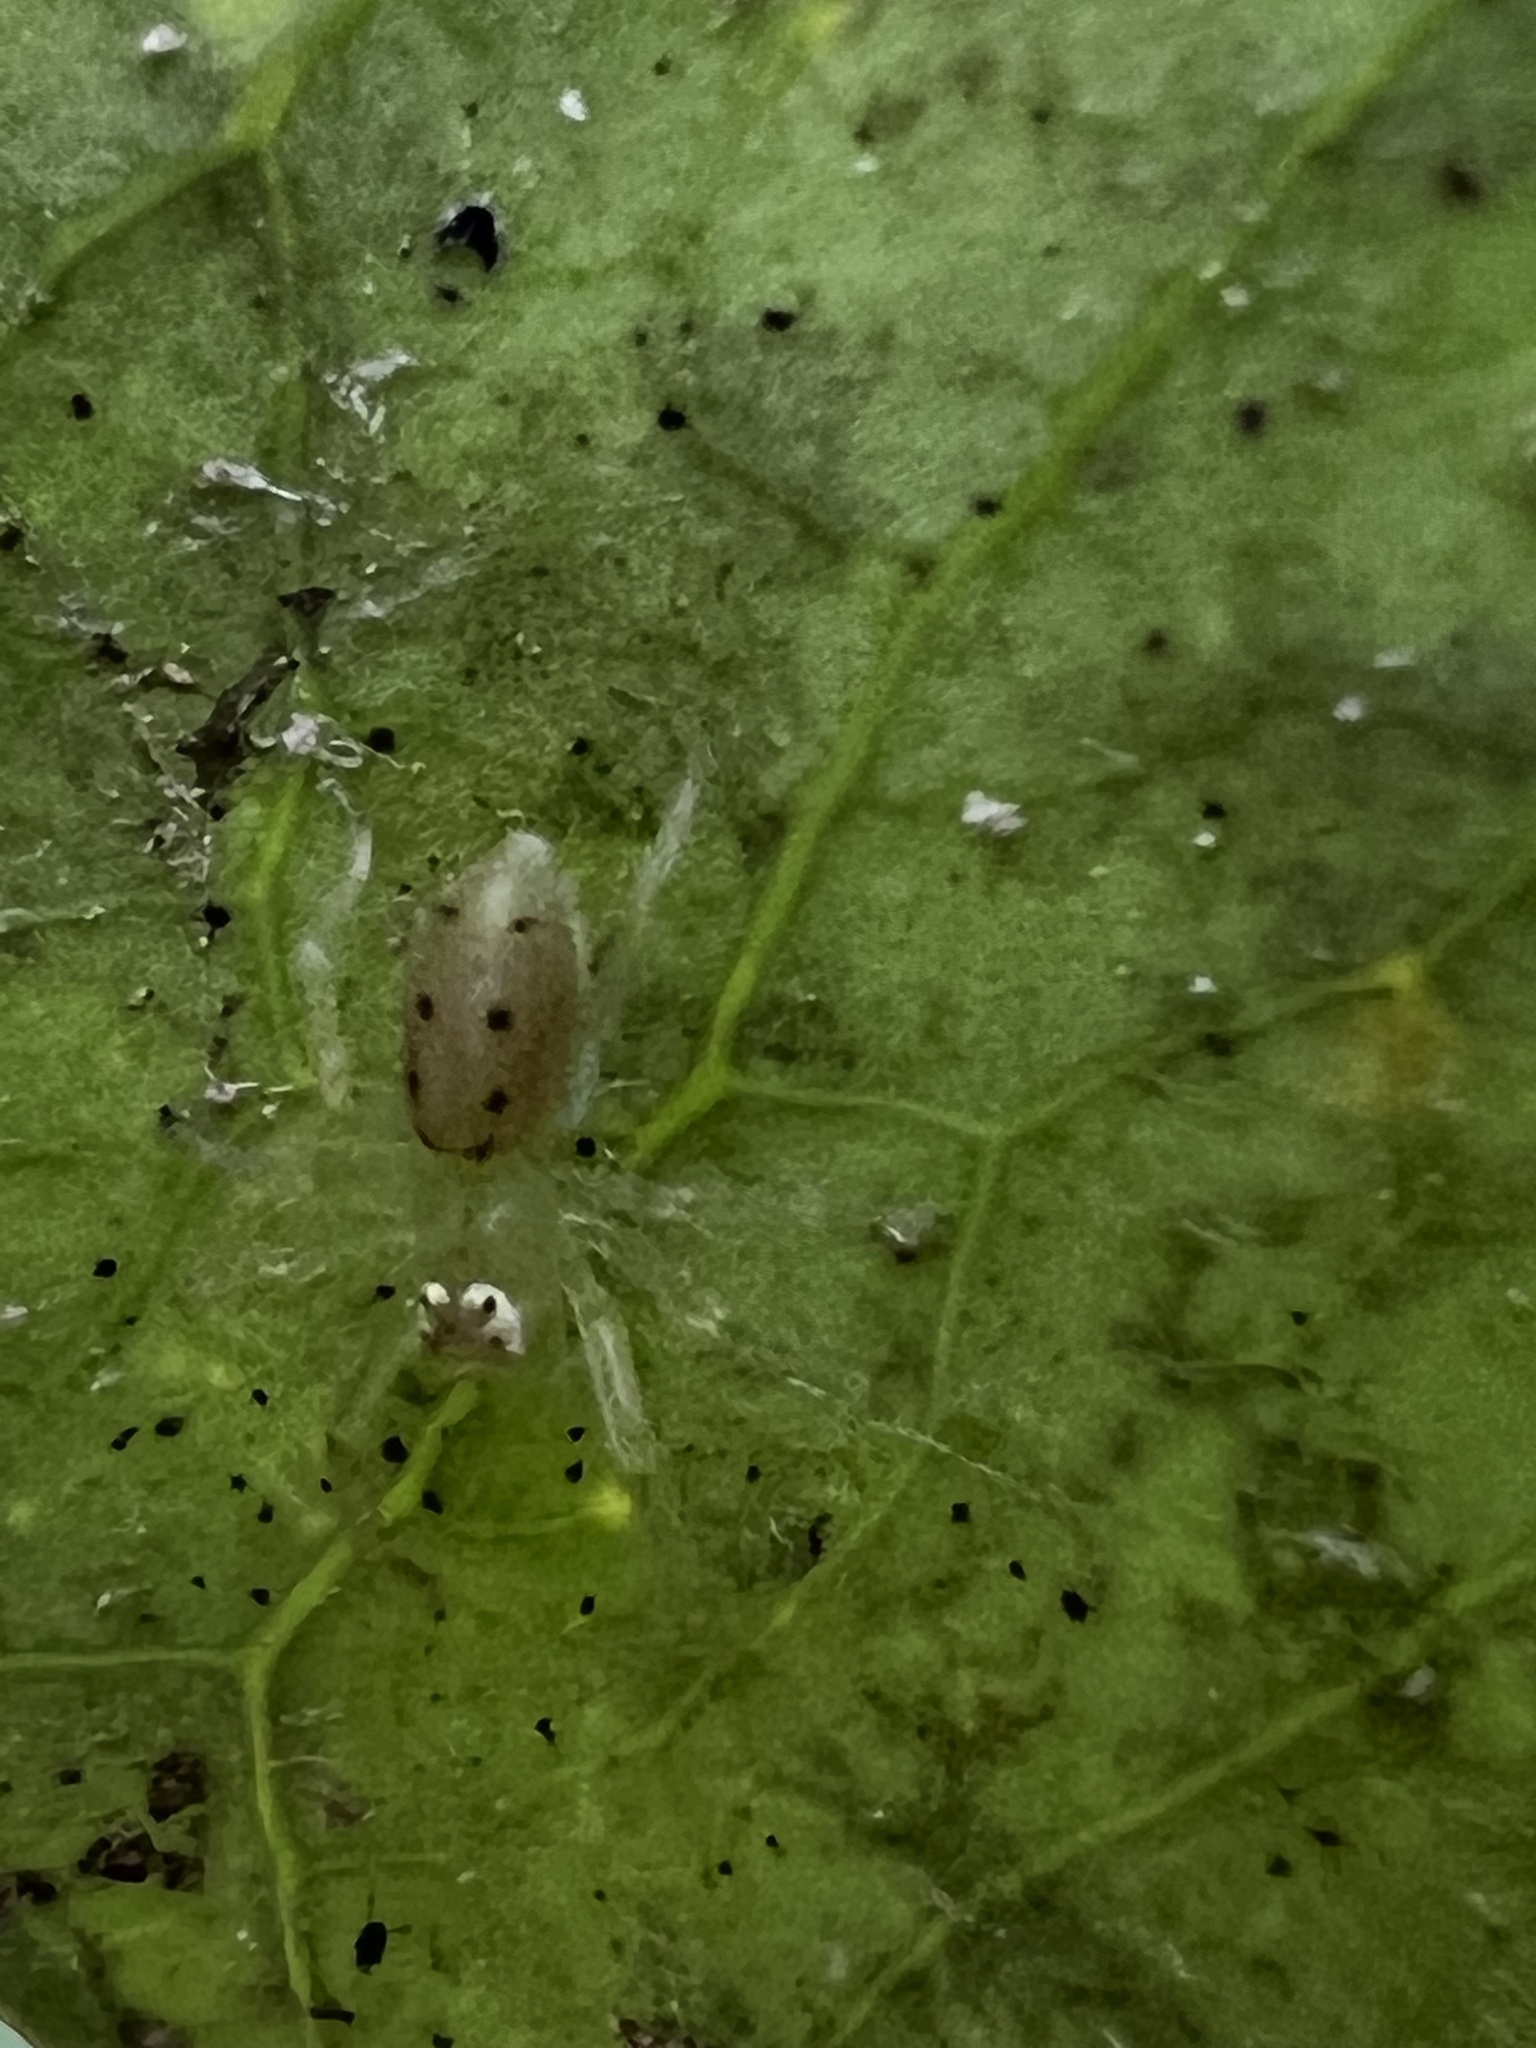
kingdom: Animalia
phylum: Arthropoda
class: Arachnida
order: Araneae
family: Salticidae
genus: Lyssomanes
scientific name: Lyssomanes viridis
